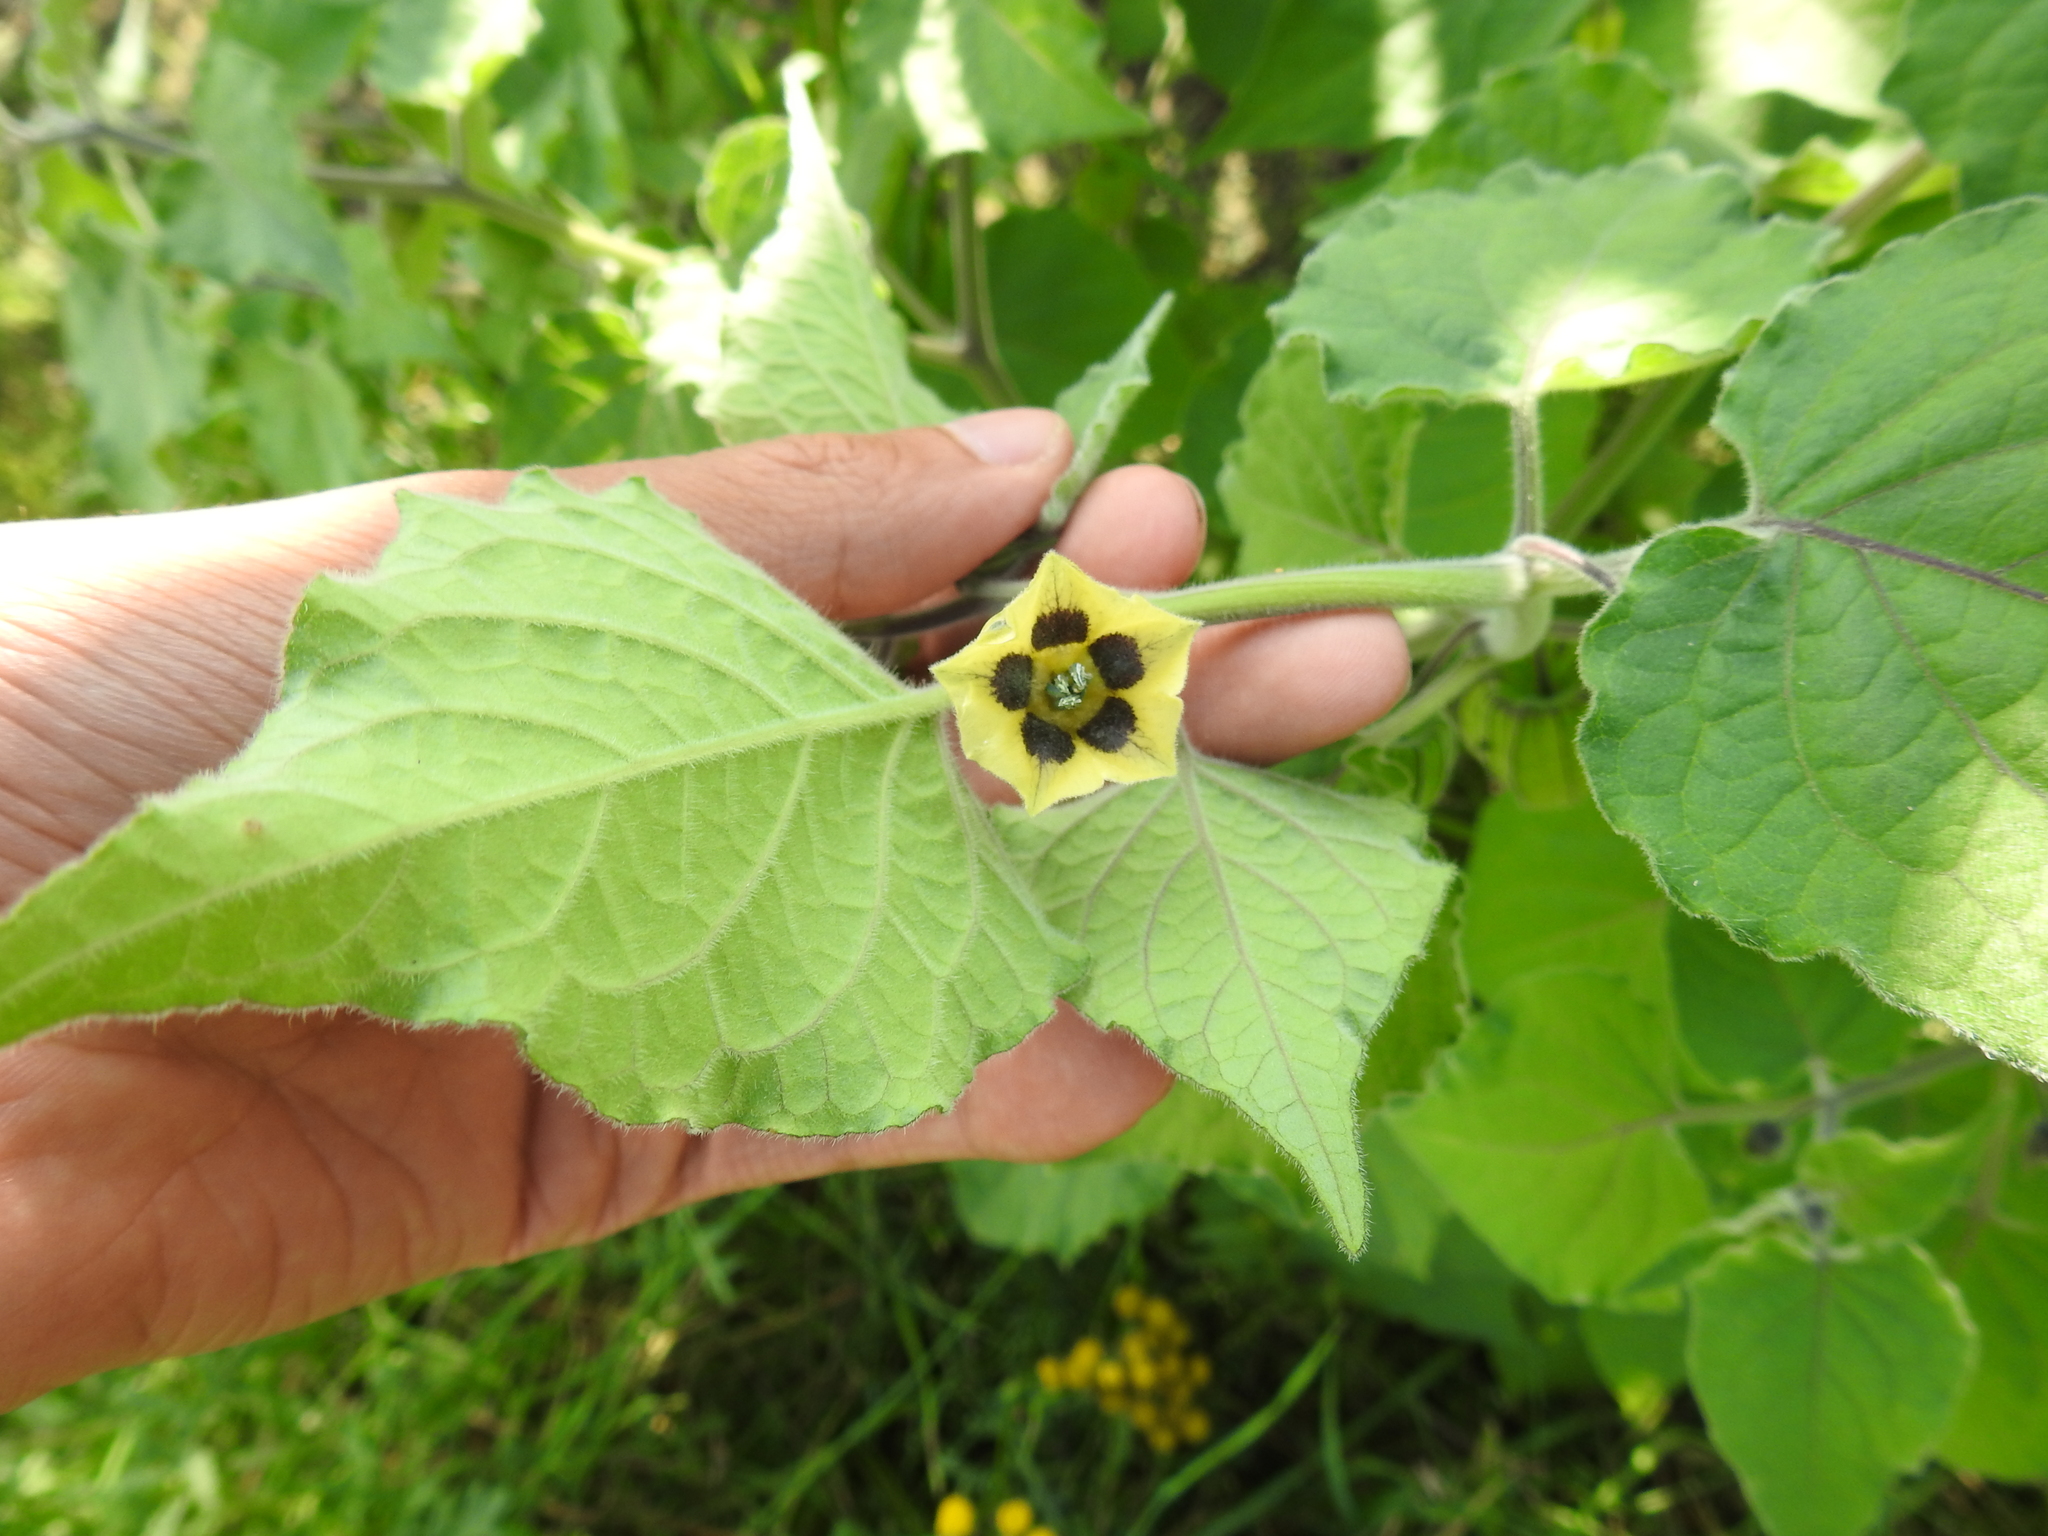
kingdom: Plantae
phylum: Tracheophyta
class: Magnoliopsida
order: Solanales
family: Solanaceae
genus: Physalis
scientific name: Physalis peruviana
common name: Cape-gooseberry
